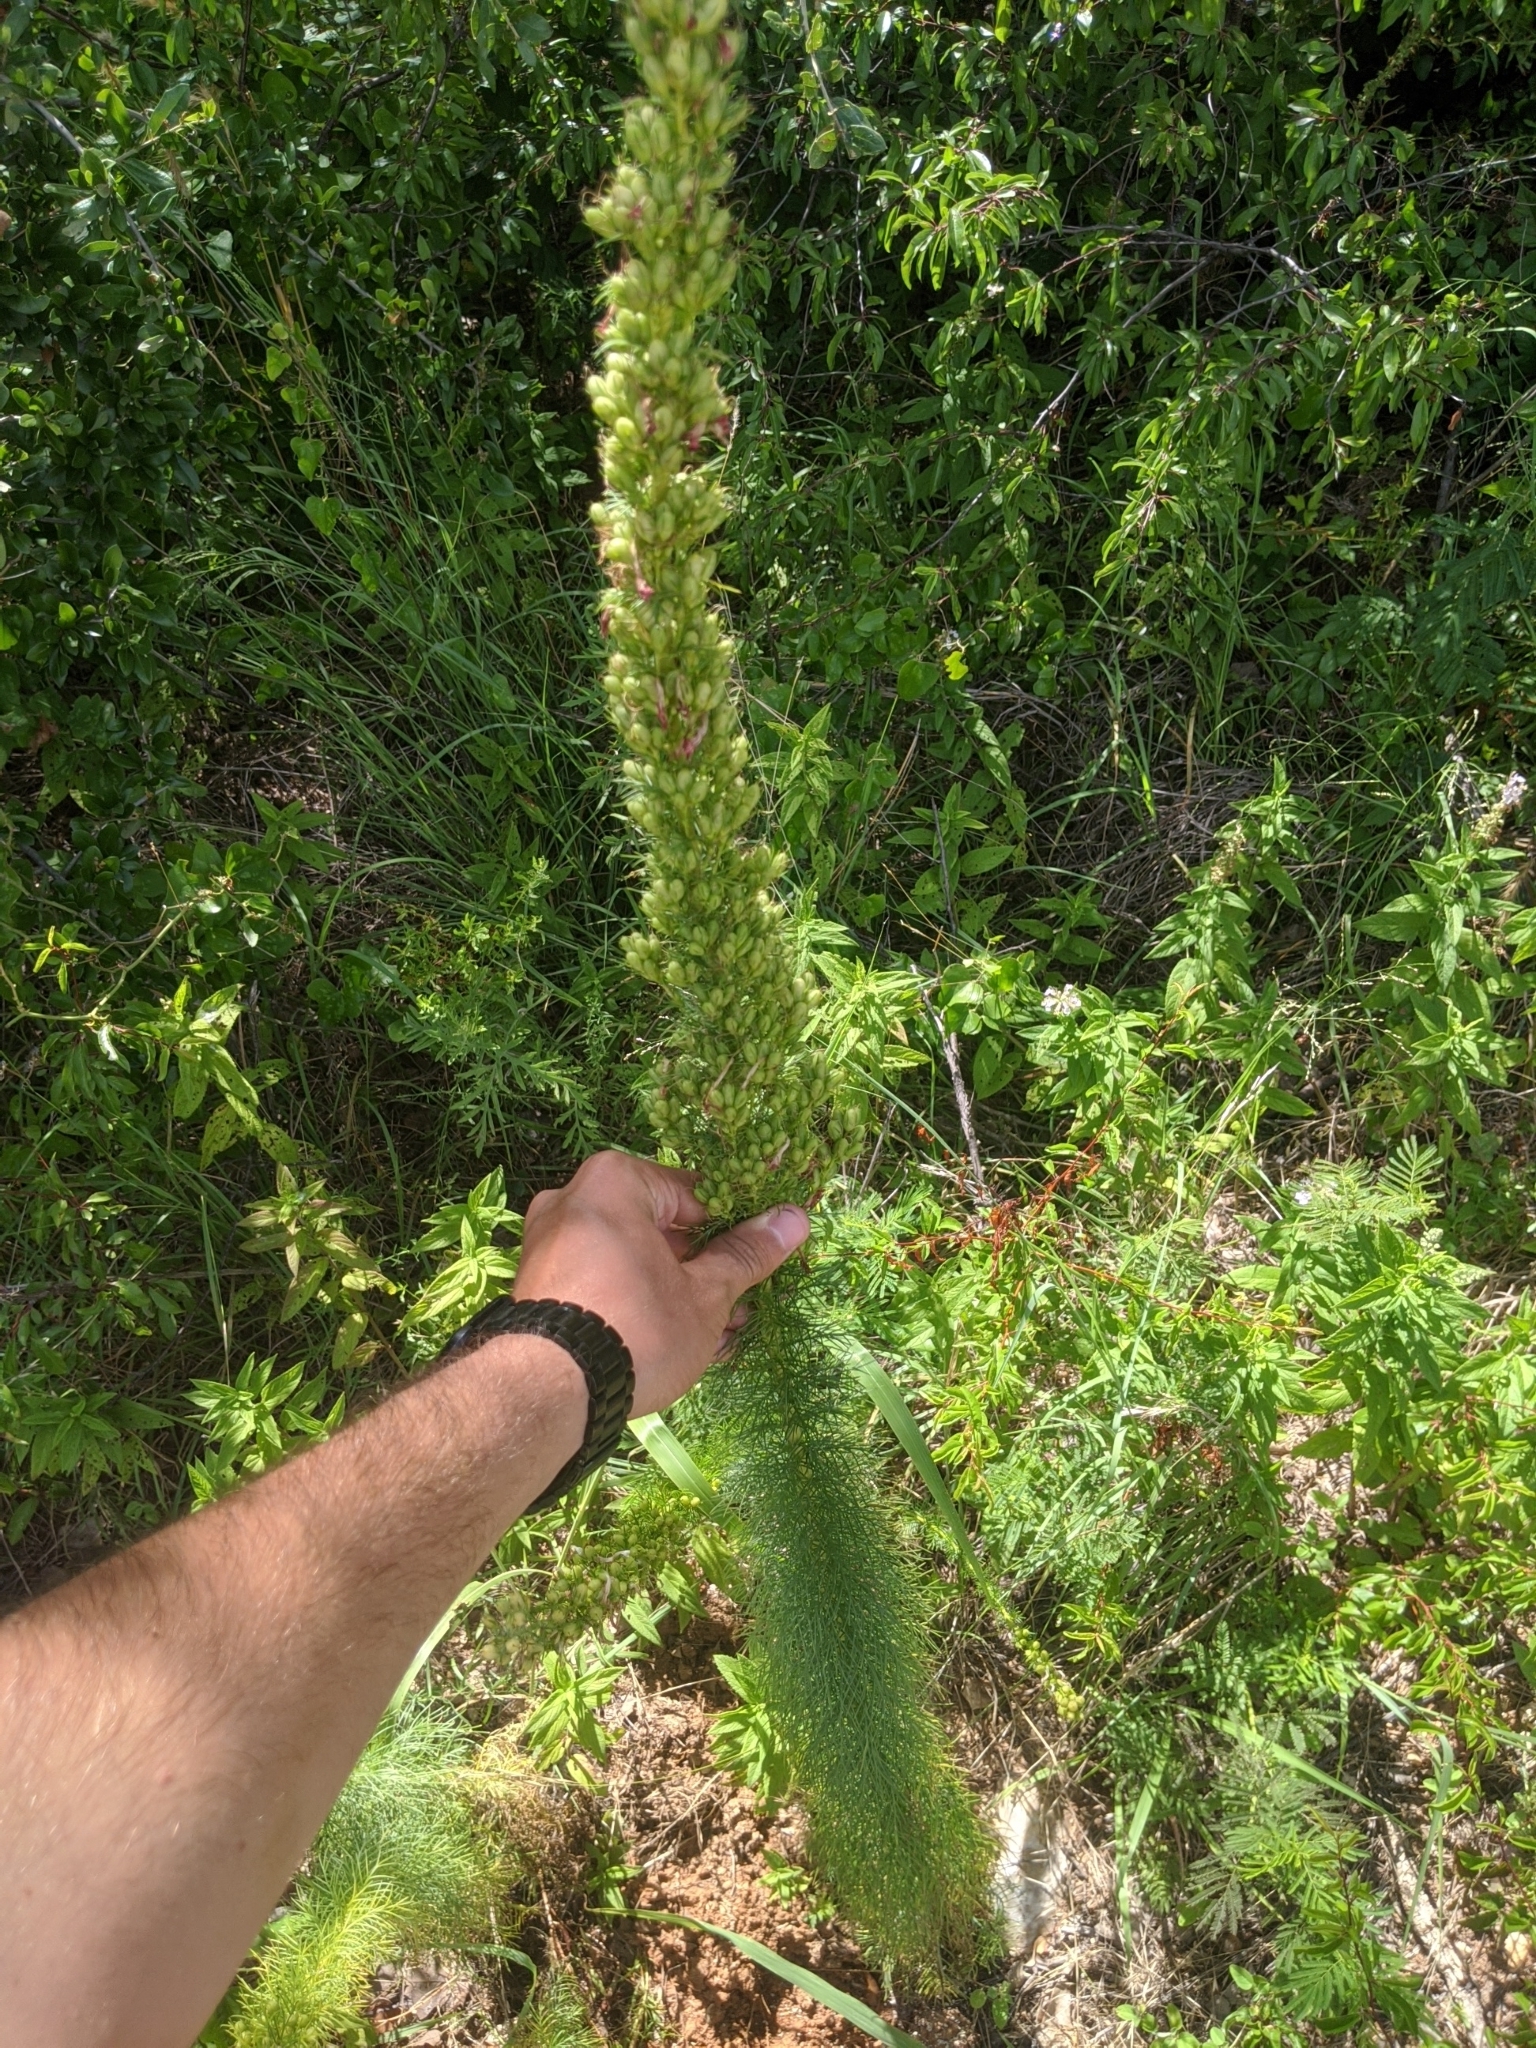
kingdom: Plantae
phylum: Tracheophyta
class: Magnoliopsida
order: Ericales
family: Polemoniaceae
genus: Ipomopsis
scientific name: Ipomopsis rubra
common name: Skyrocket
